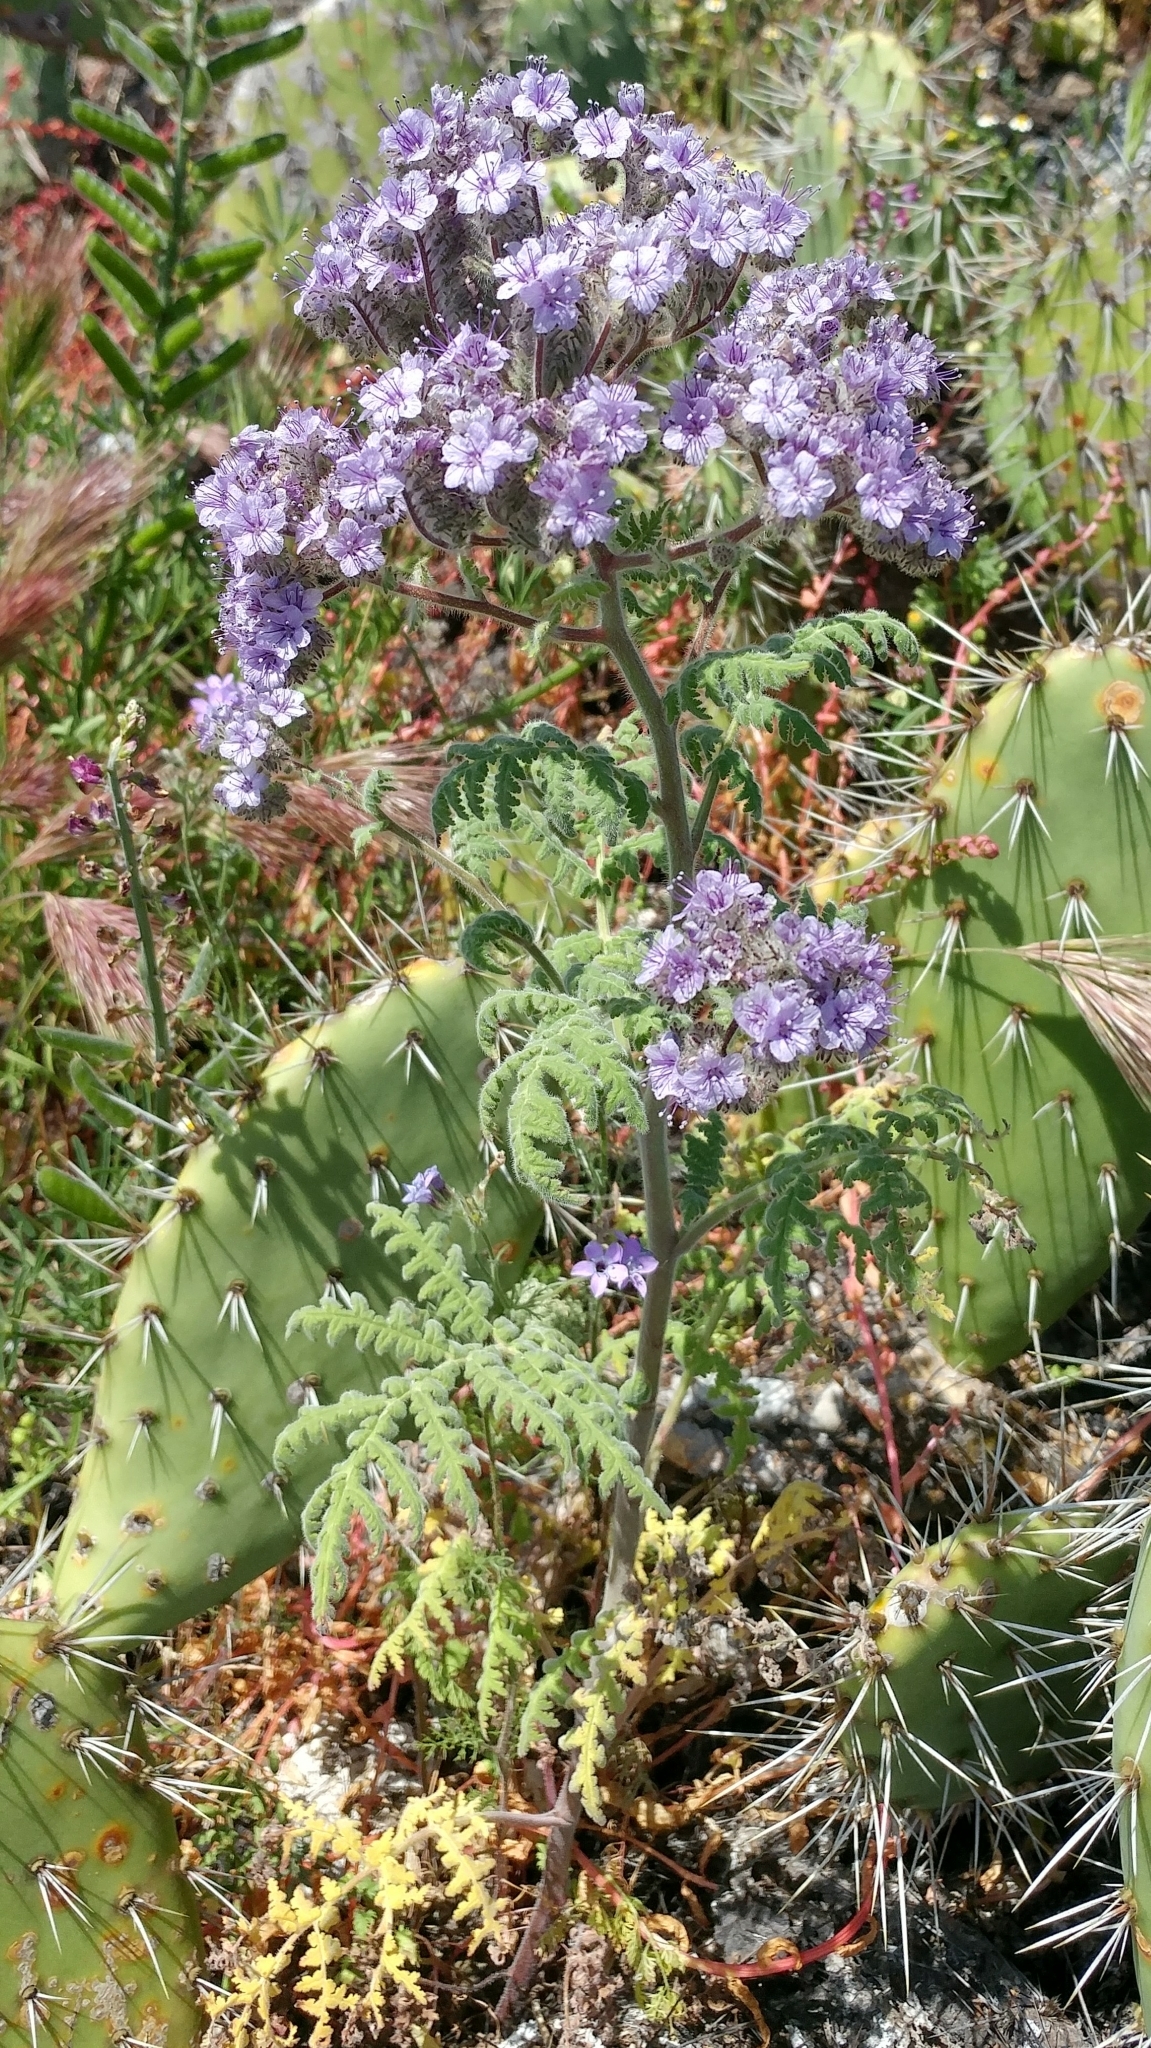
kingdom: Plantae
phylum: Tracheophyta
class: Magnoliopsida
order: Boraginales
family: Hydrophyllaceae
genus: Phacelia
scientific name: Phacelia floribunda
